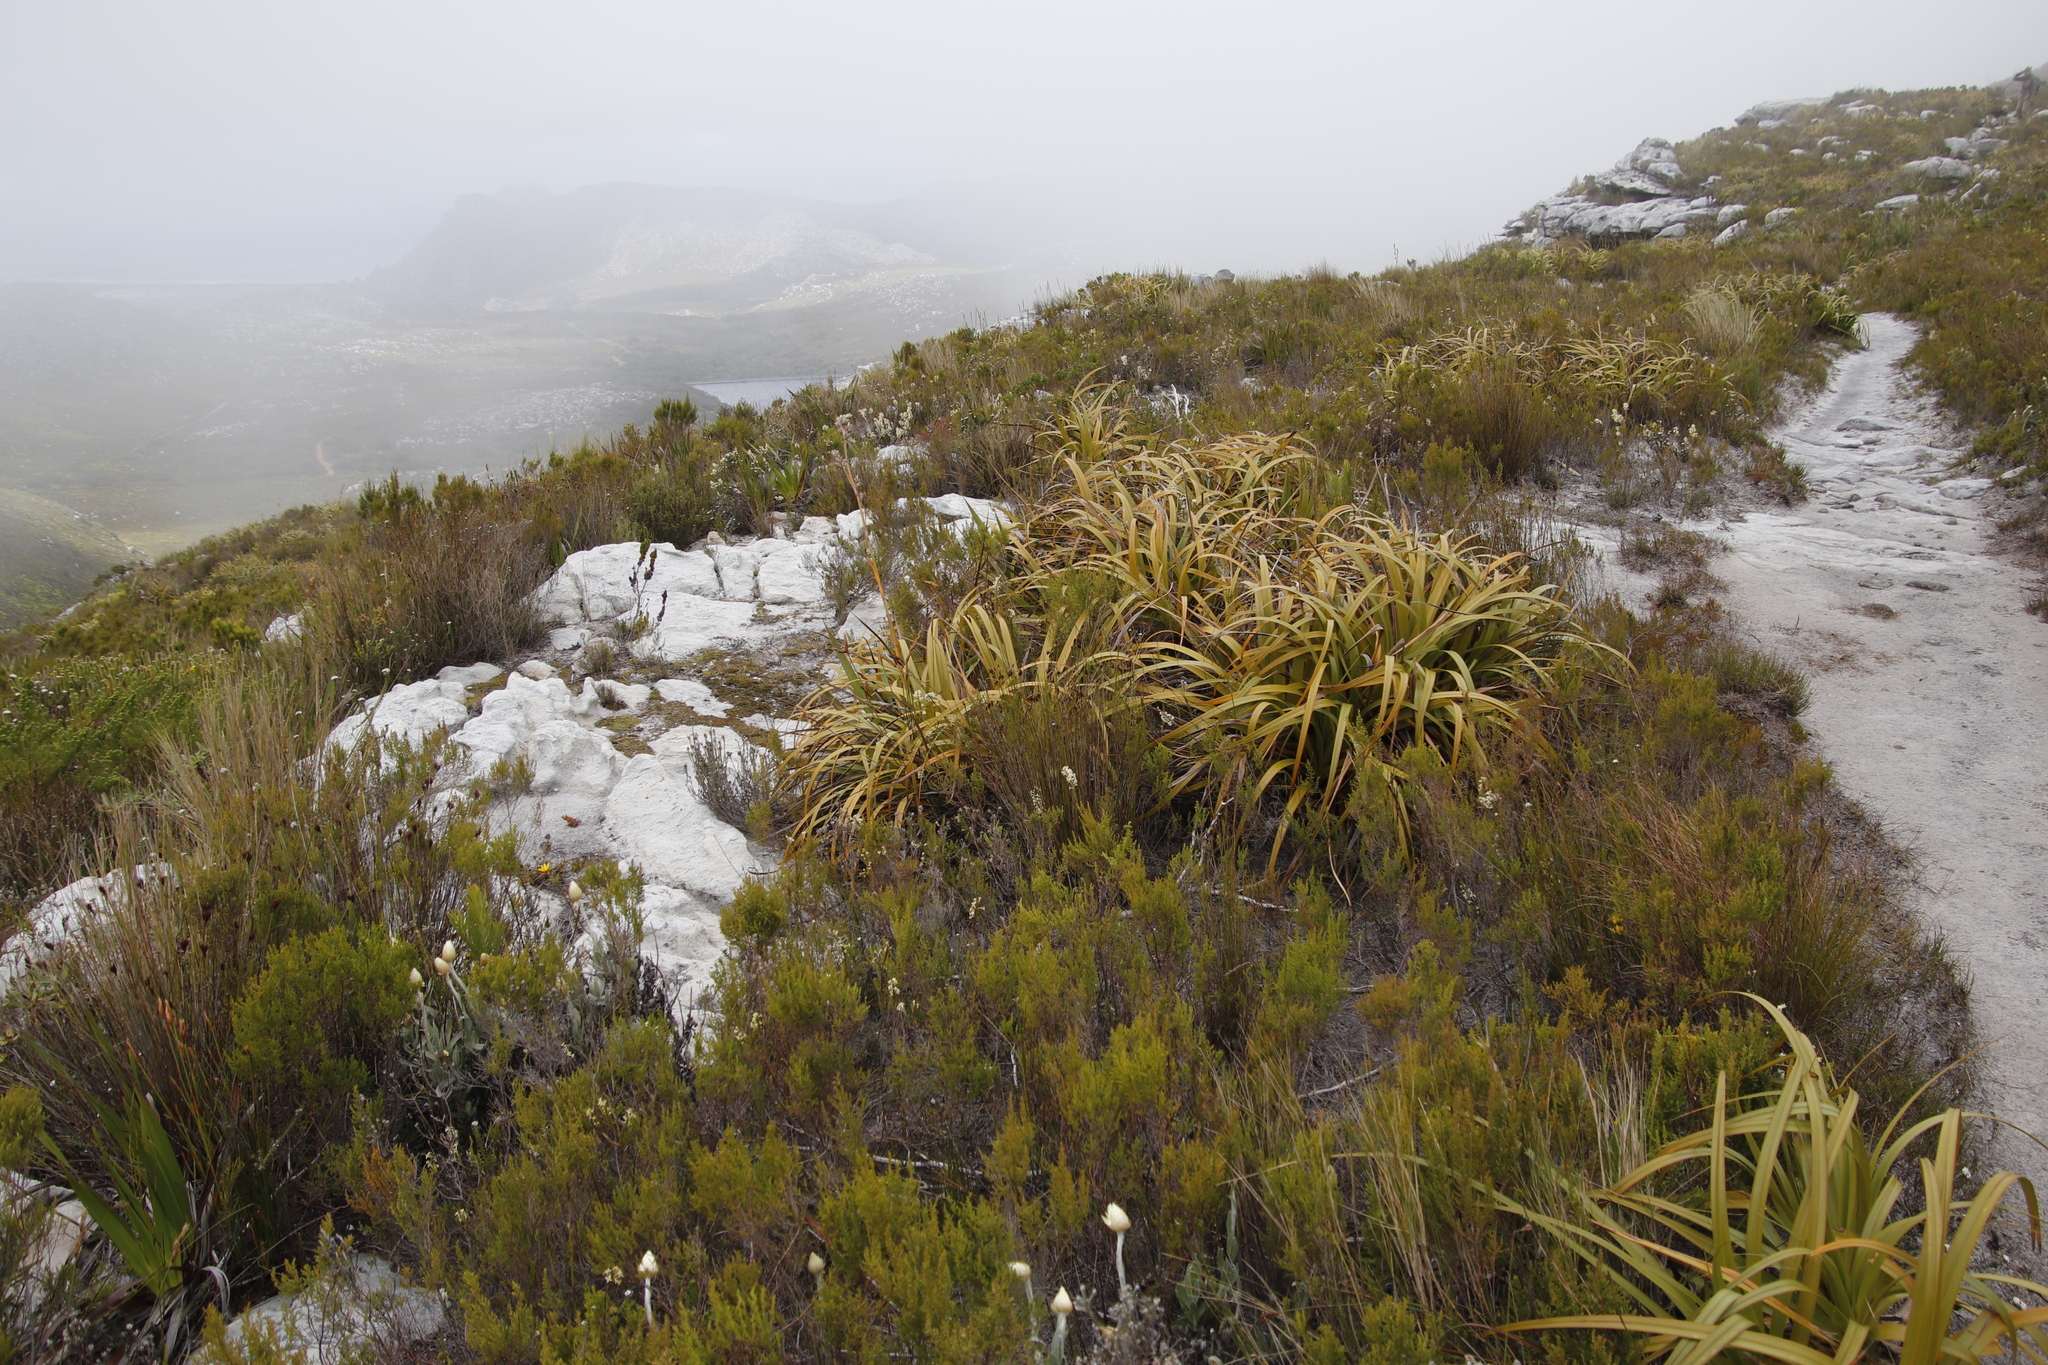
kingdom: Plantae
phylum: Tracheophyta
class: Liliopsida
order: Poales
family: Cyperaceae
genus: Tetraria
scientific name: Tetraria thermalis
